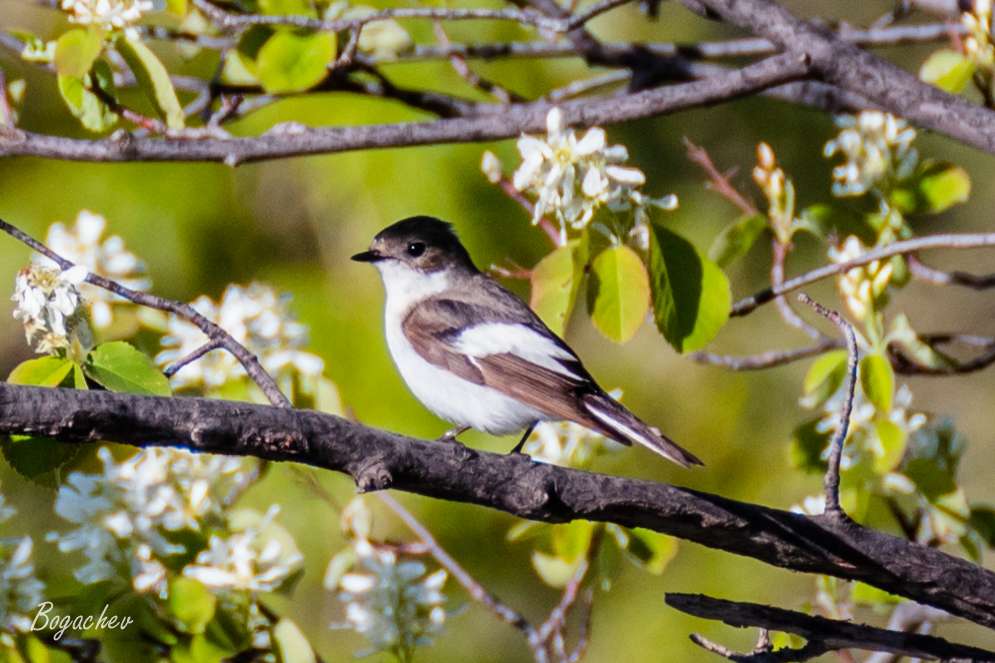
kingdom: Animalia
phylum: Chordata
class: Aves
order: Passeriformes
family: Muscicapidae
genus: Ficedula
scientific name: Ficedula hypoleuca
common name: European pied flycatcher
